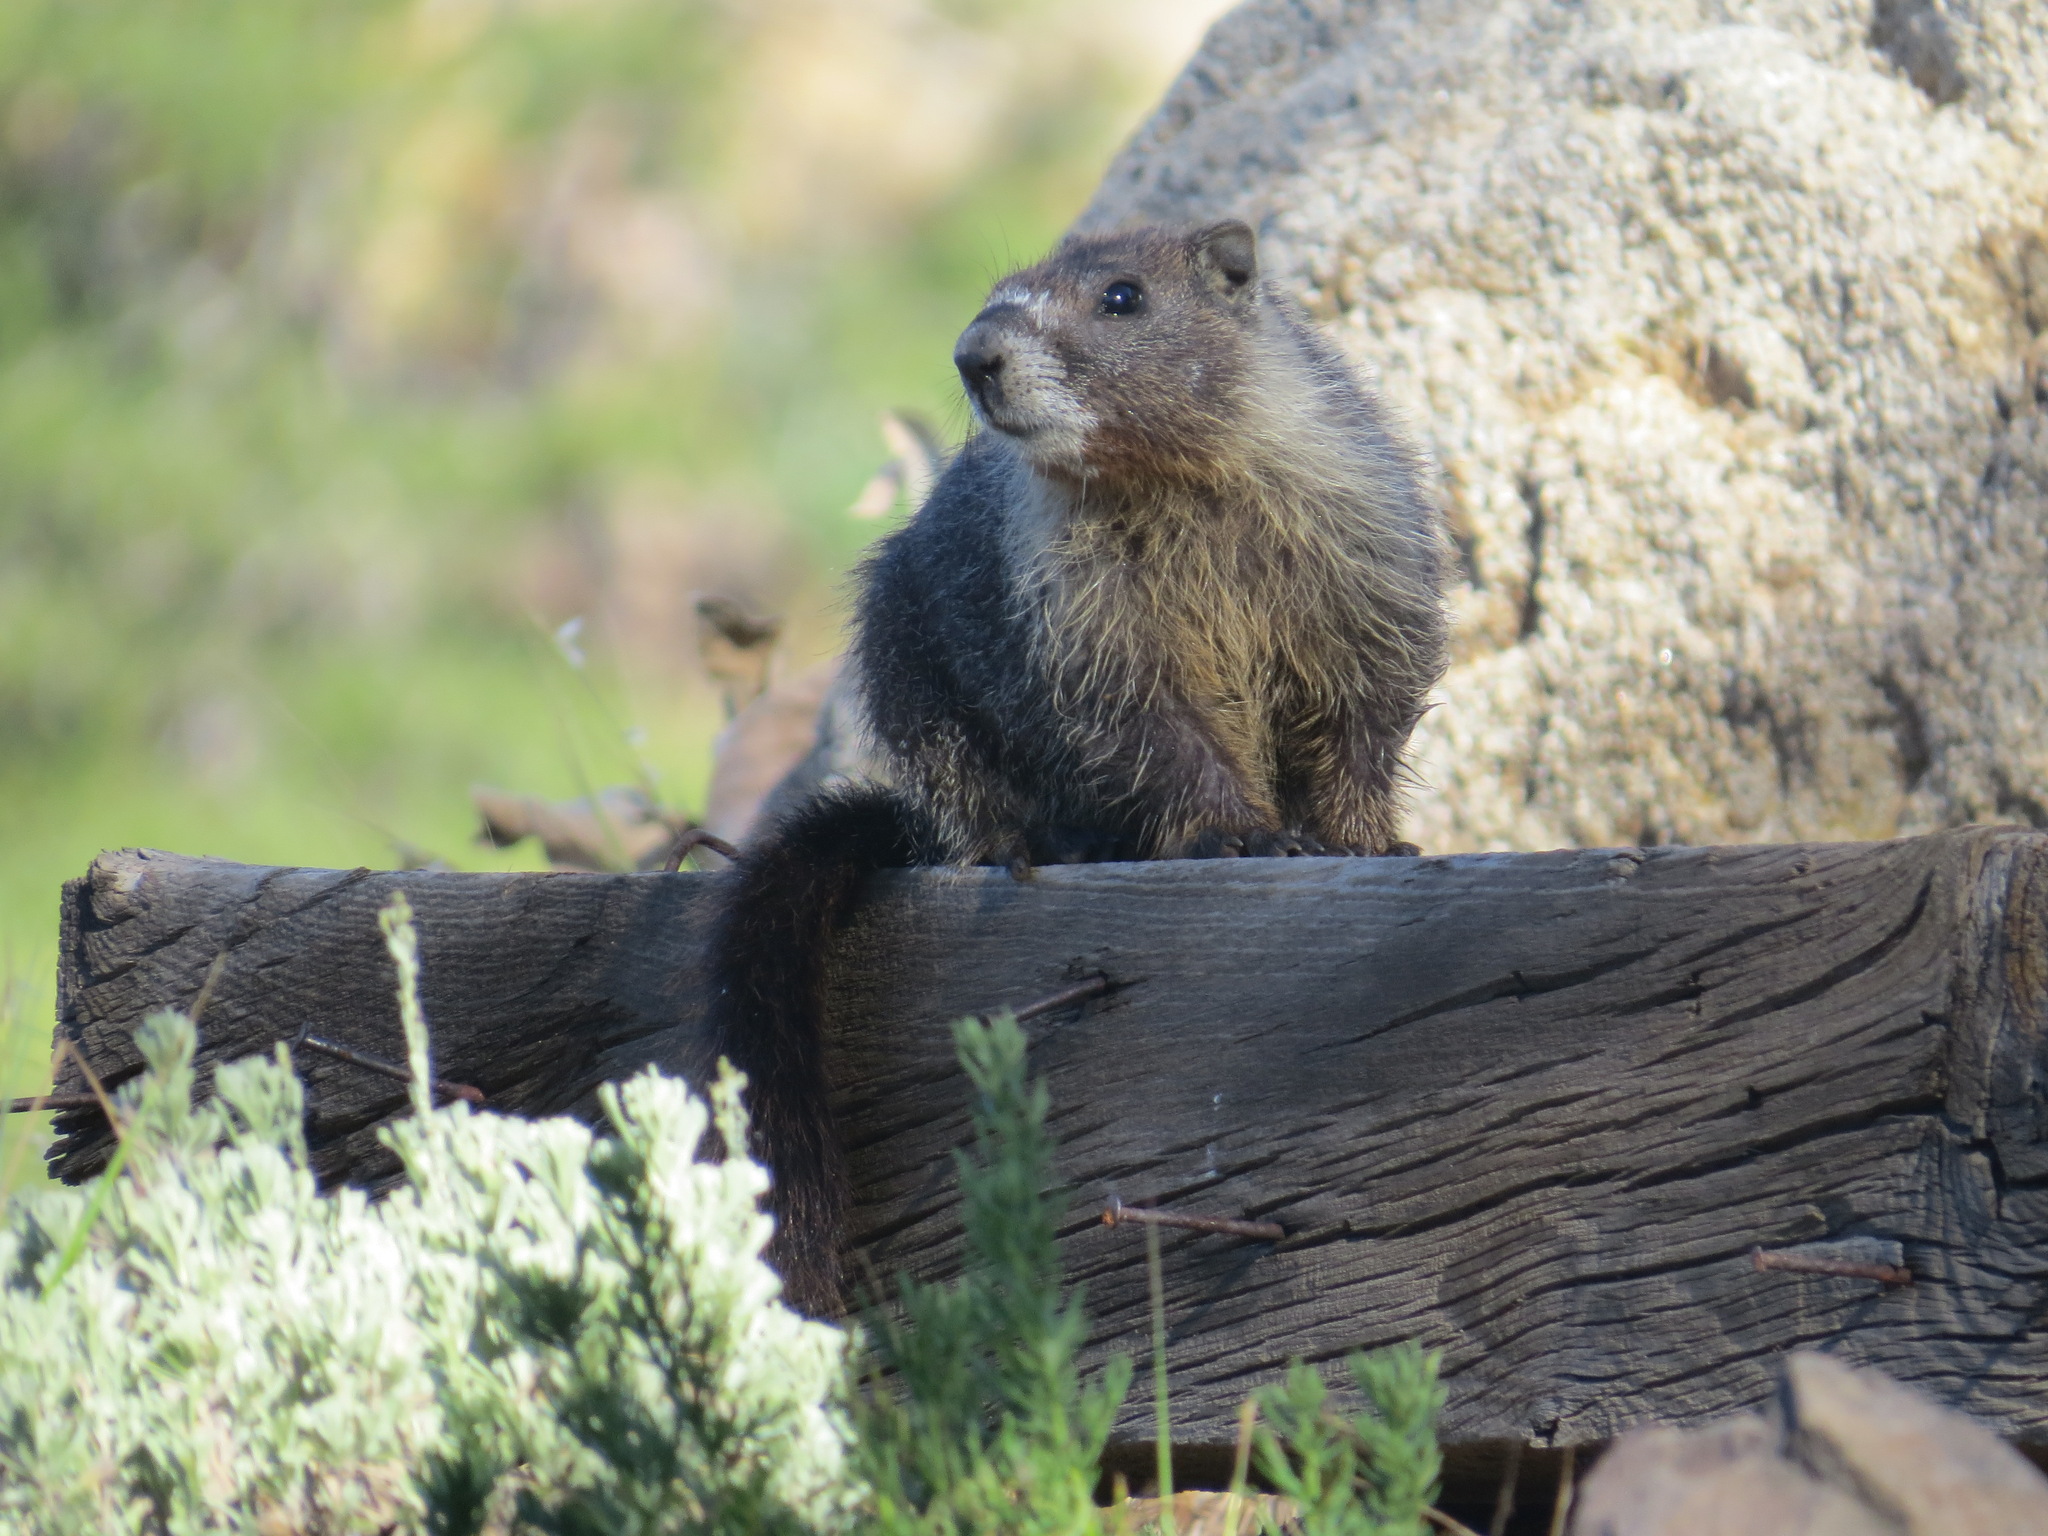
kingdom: Animalia
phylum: Chordata
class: Mammalia
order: Rodentia
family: Sciuridae
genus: Marmota
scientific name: Marmota flaviventris
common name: Yellow-bellied marmot
